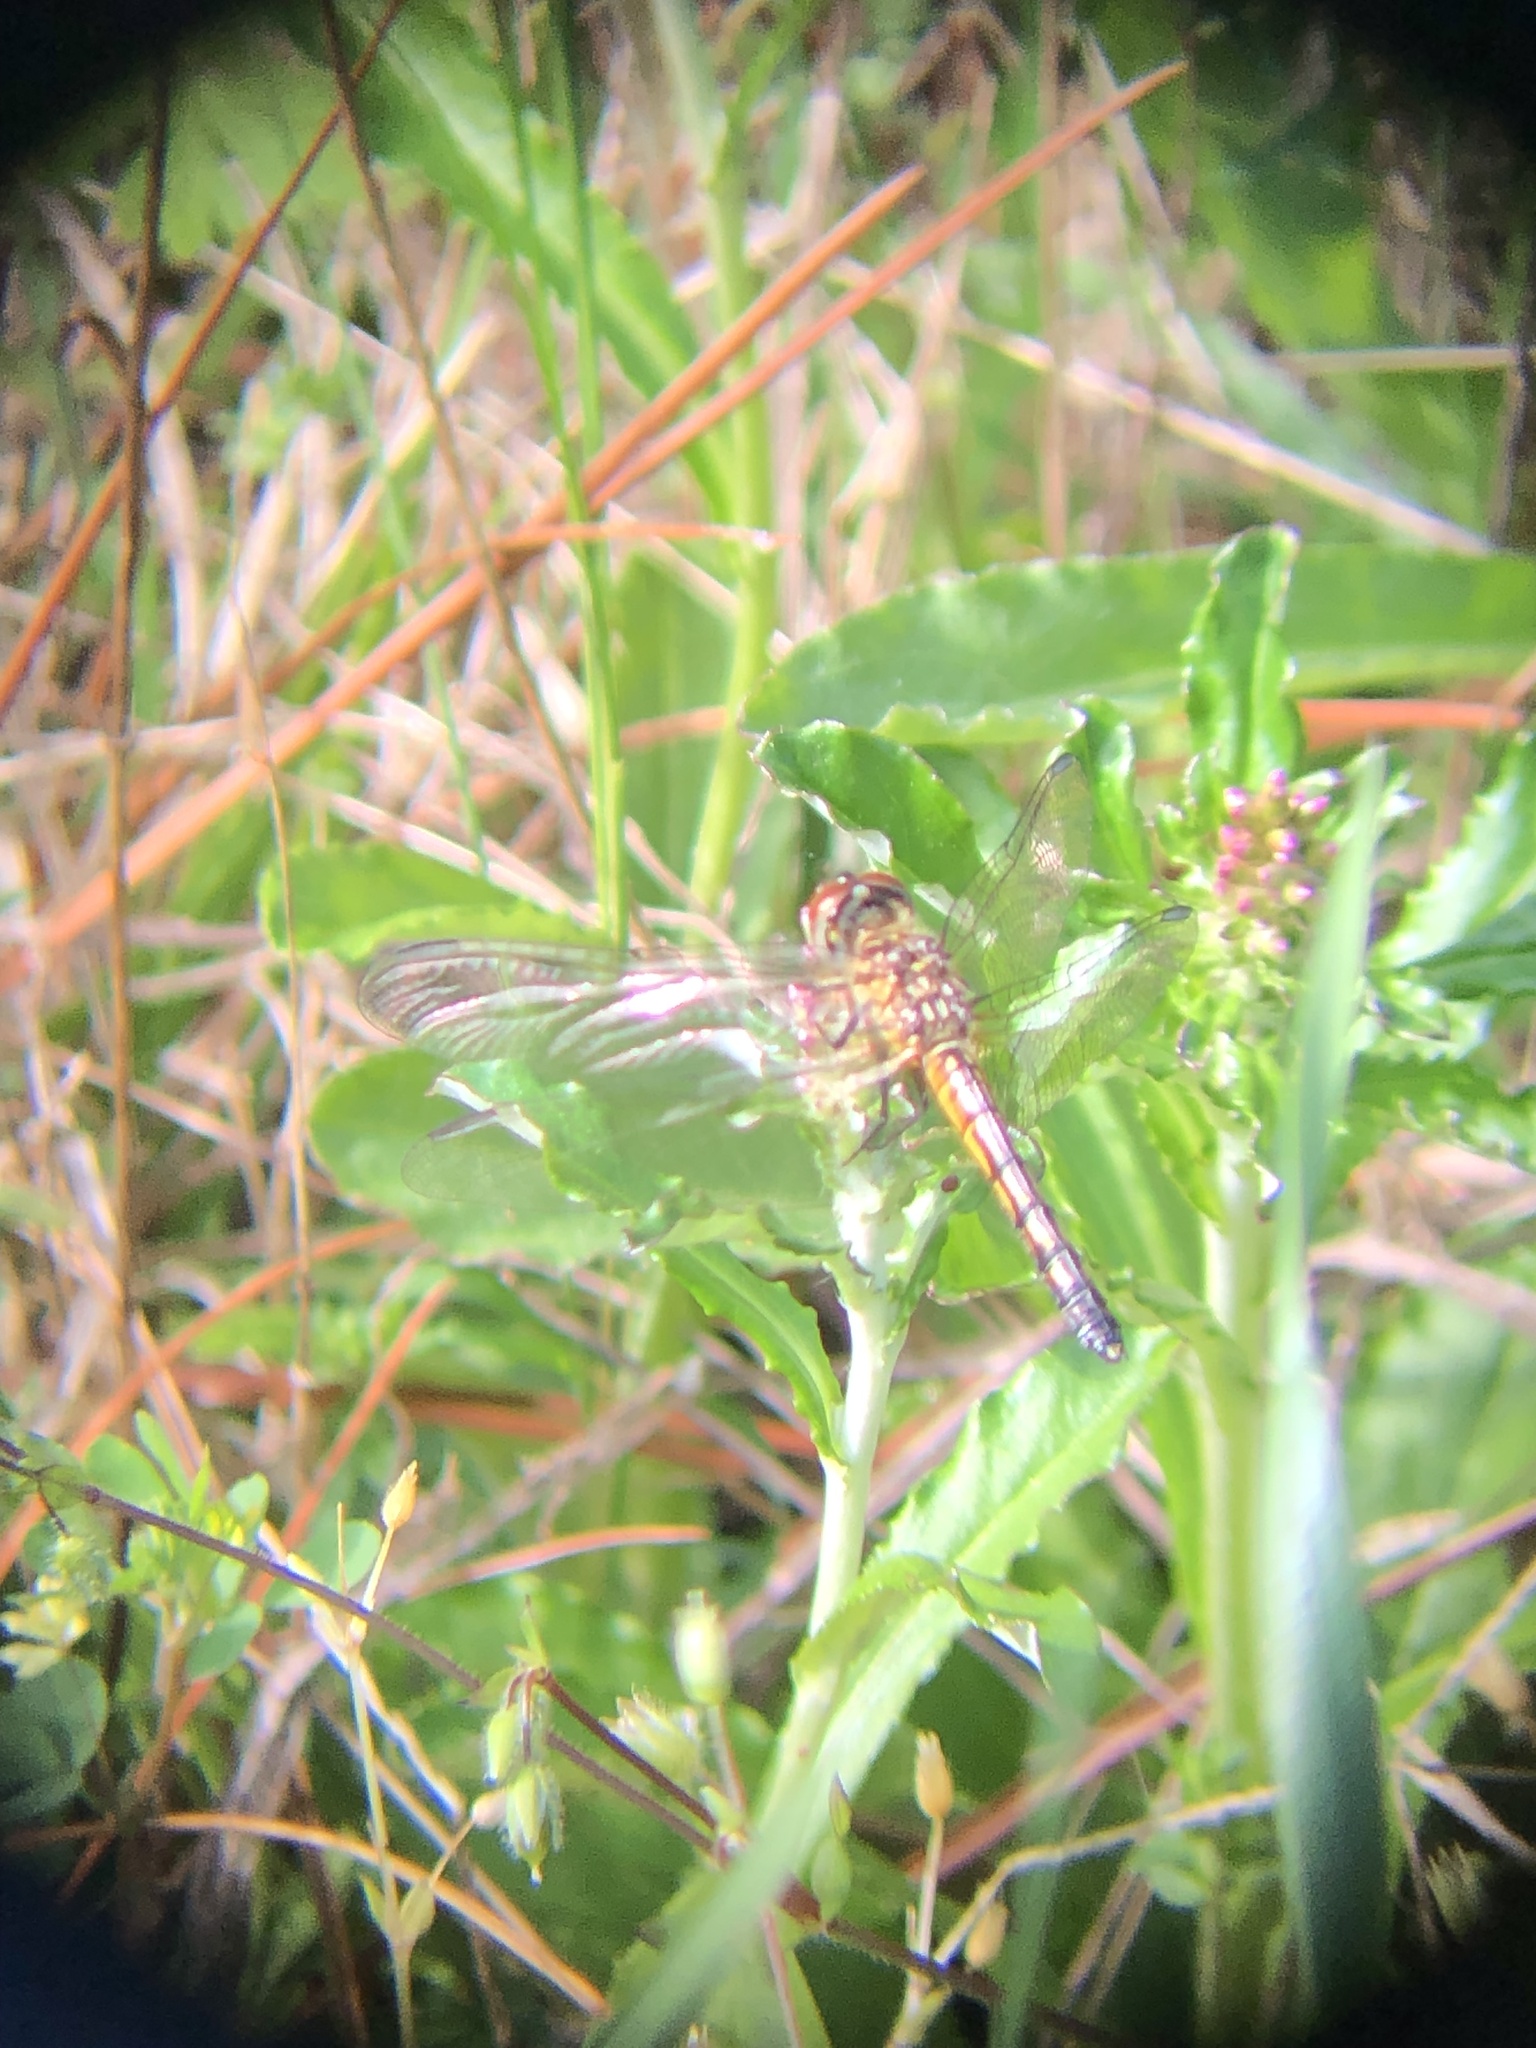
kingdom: Animalia
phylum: Arthropoda
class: Insecta
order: Odonata
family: Libellulidae
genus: Pachydiplax
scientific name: Pachydiplax longipennis
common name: Blue dasher
